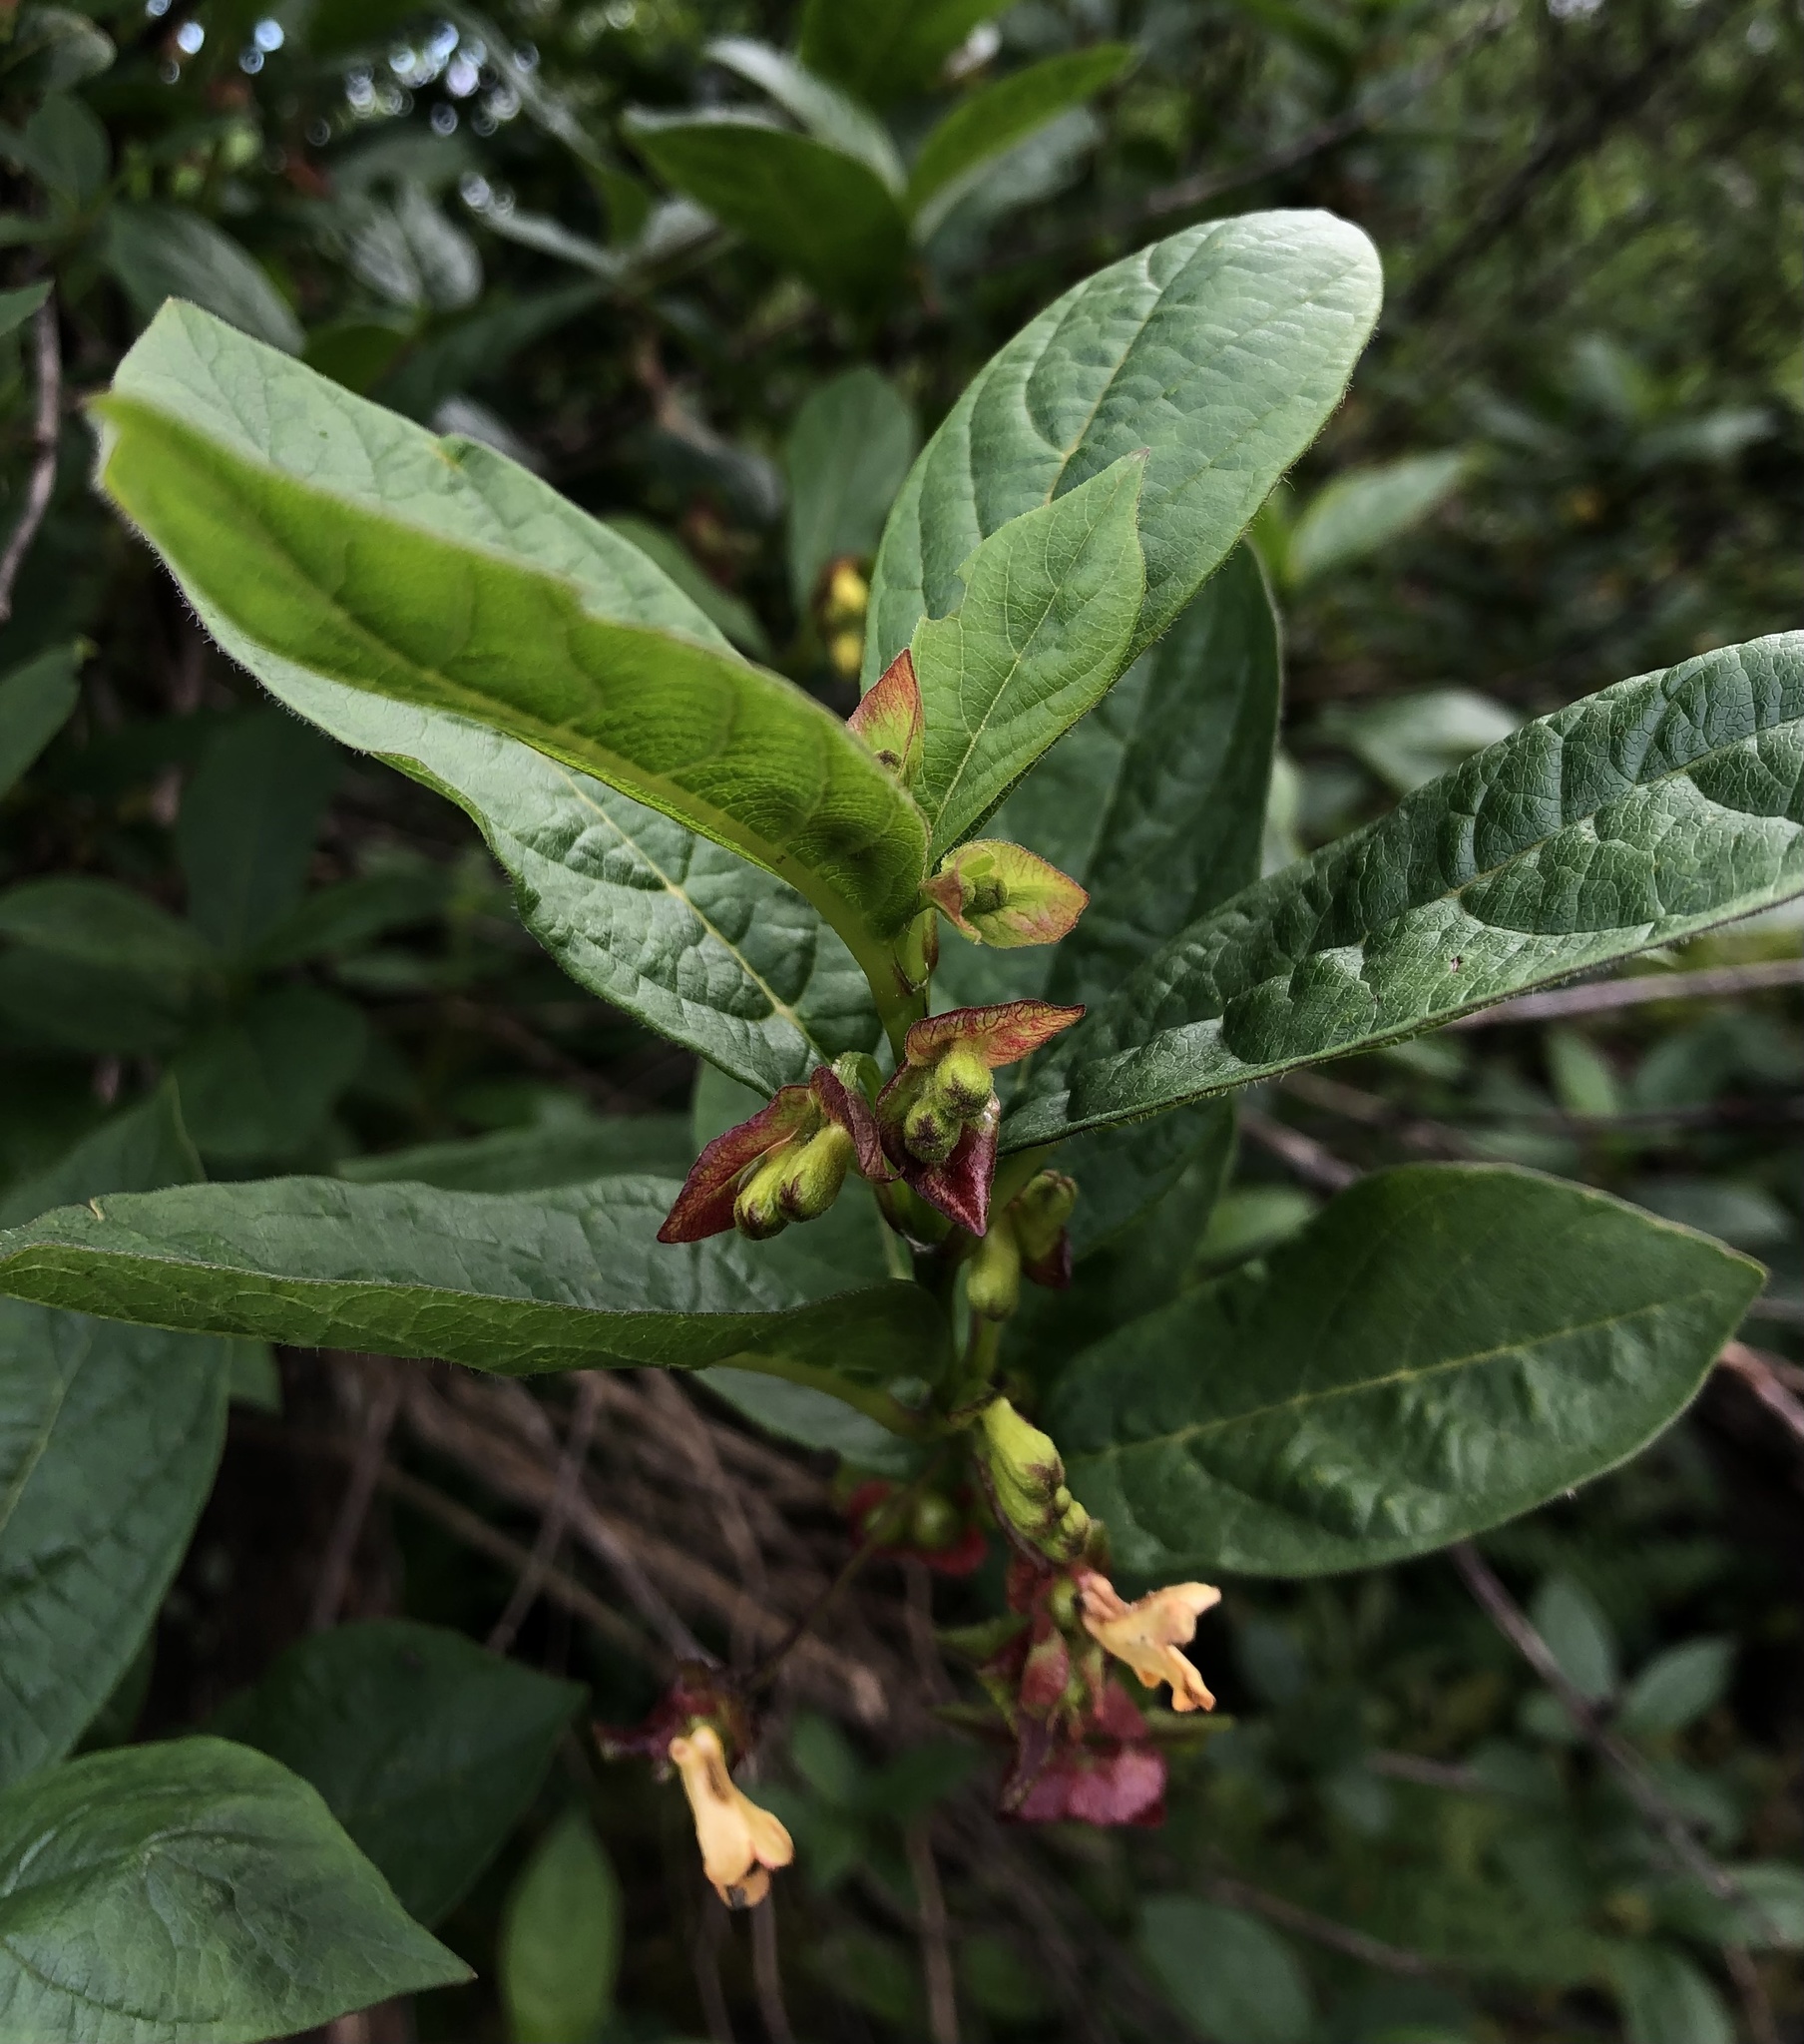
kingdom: Plantae
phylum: Tracheophyta
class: Magnoliopsida
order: Dipsacales
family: Caprifoliaceae
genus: Lonicera
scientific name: Lonicera involucrata
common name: Californian honeysuckle
